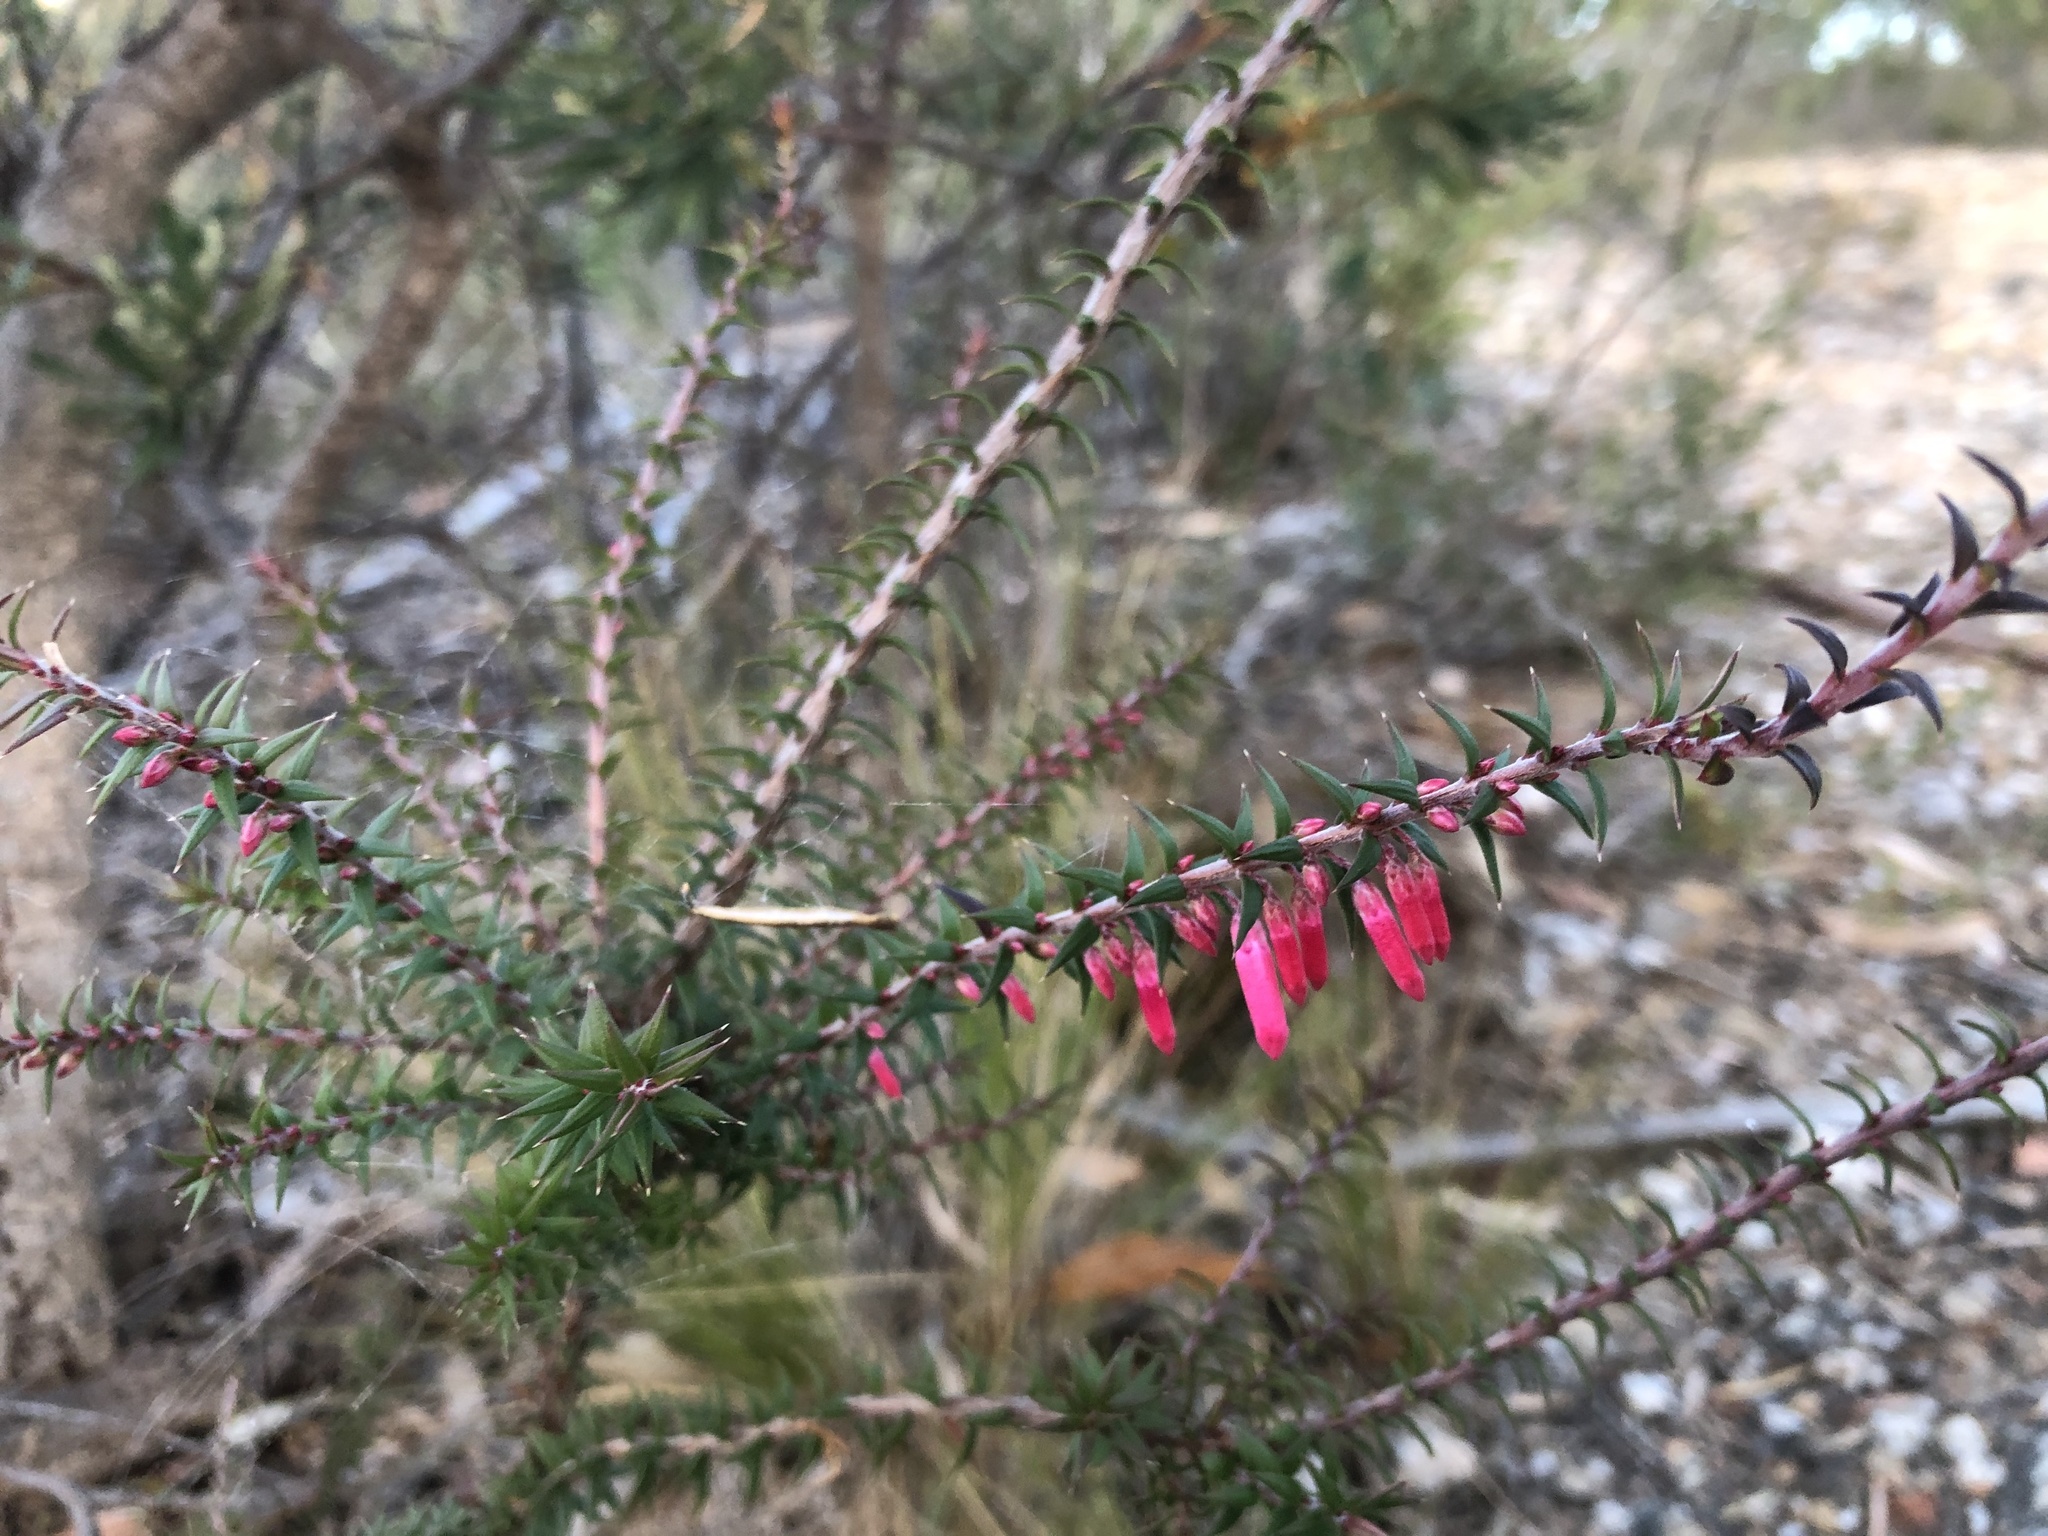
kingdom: Plantae
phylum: Tracheophyta
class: Magnoliopsida
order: Ericales
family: Ericaceae
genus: Epacris
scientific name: Epacris impressa
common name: Common-heath
